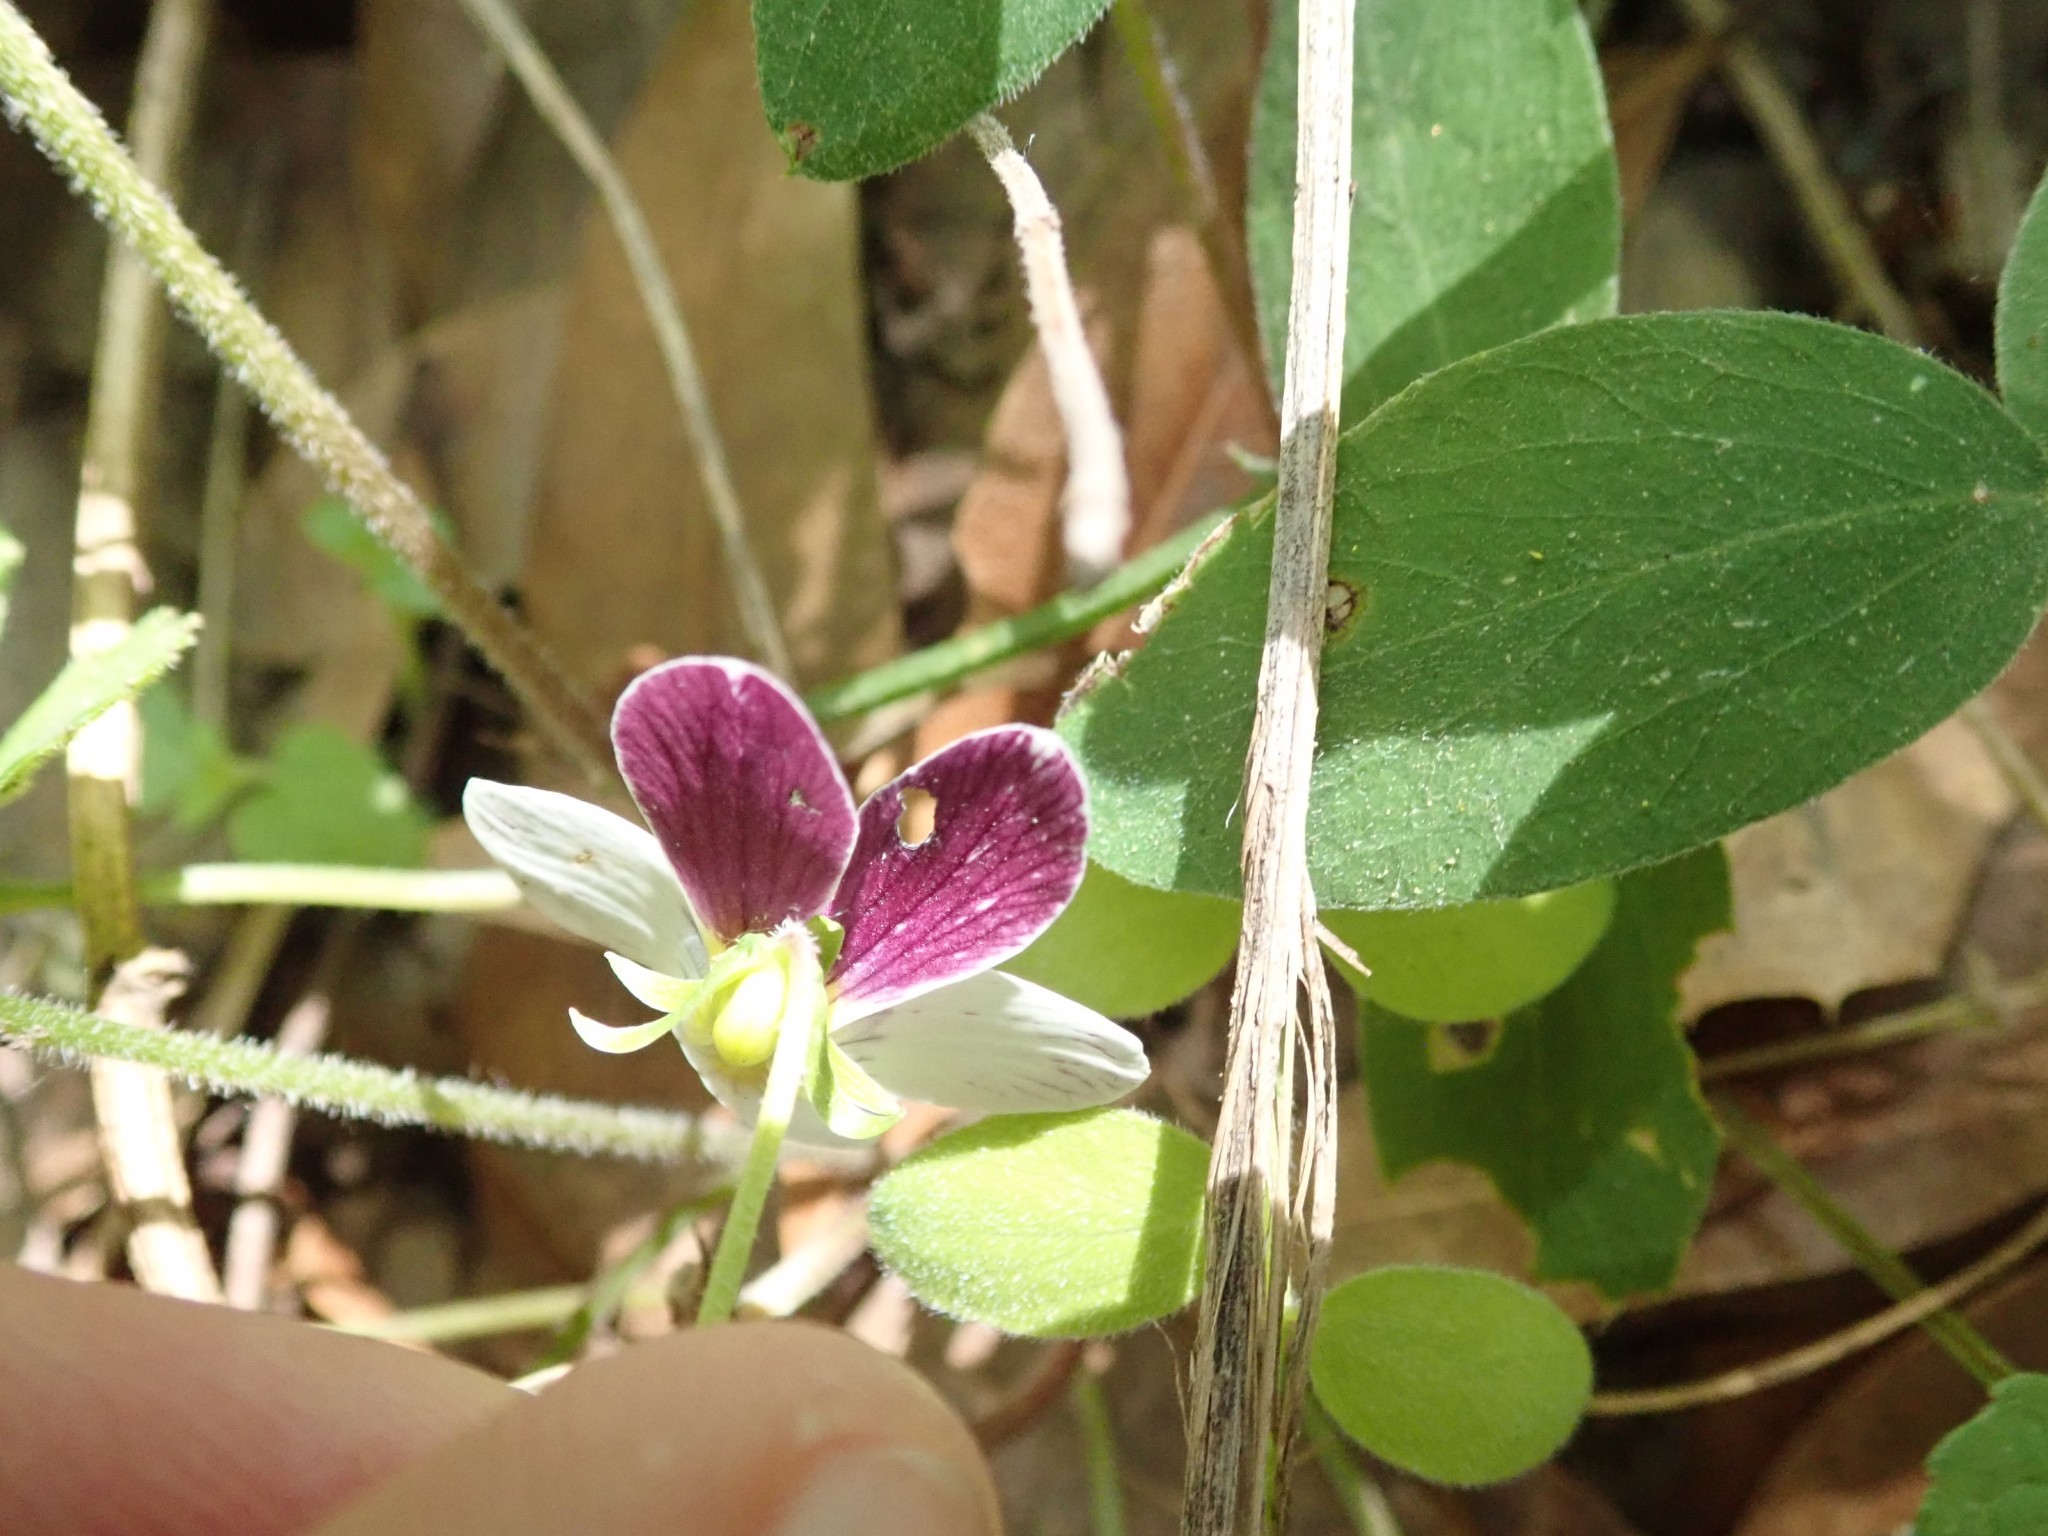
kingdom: Plantae
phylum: Tracheophyta
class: Magnoliopsida
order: Malpighiales
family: Violaceae
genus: Viola
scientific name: Viola ocellata
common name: Western heart's ease
